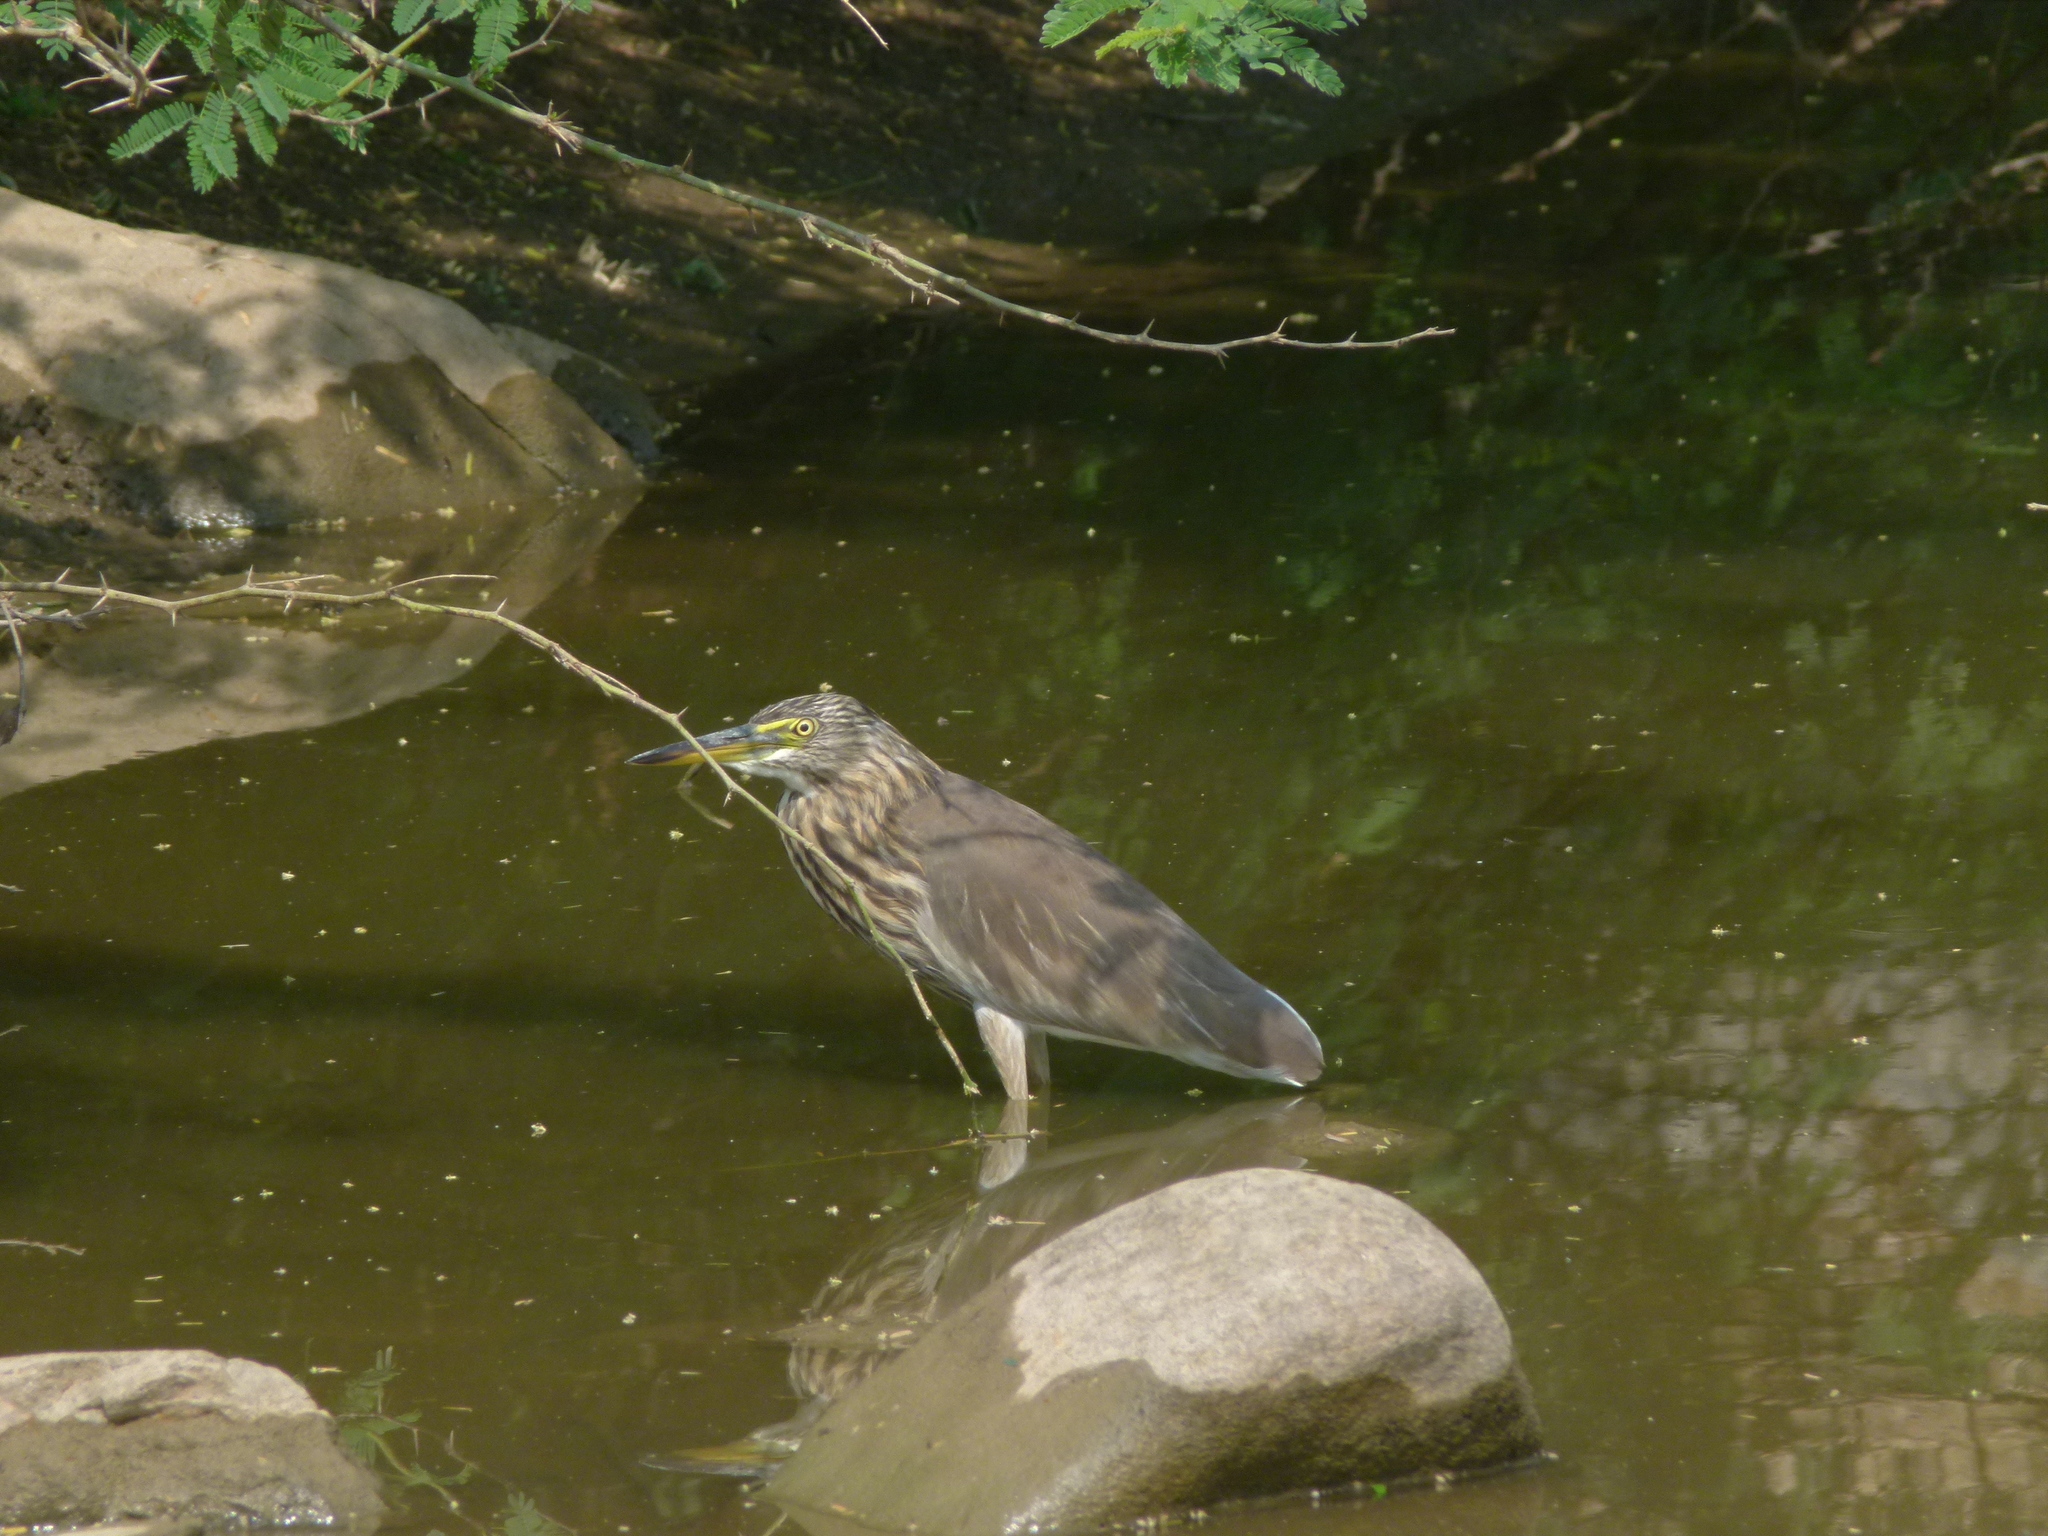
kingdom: Animalia
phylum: Chordata
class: Aves
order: Pelecaniformes
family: Ardeidae
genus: Ardeola
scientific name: Ardeola grayii
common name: Indian pond heron
